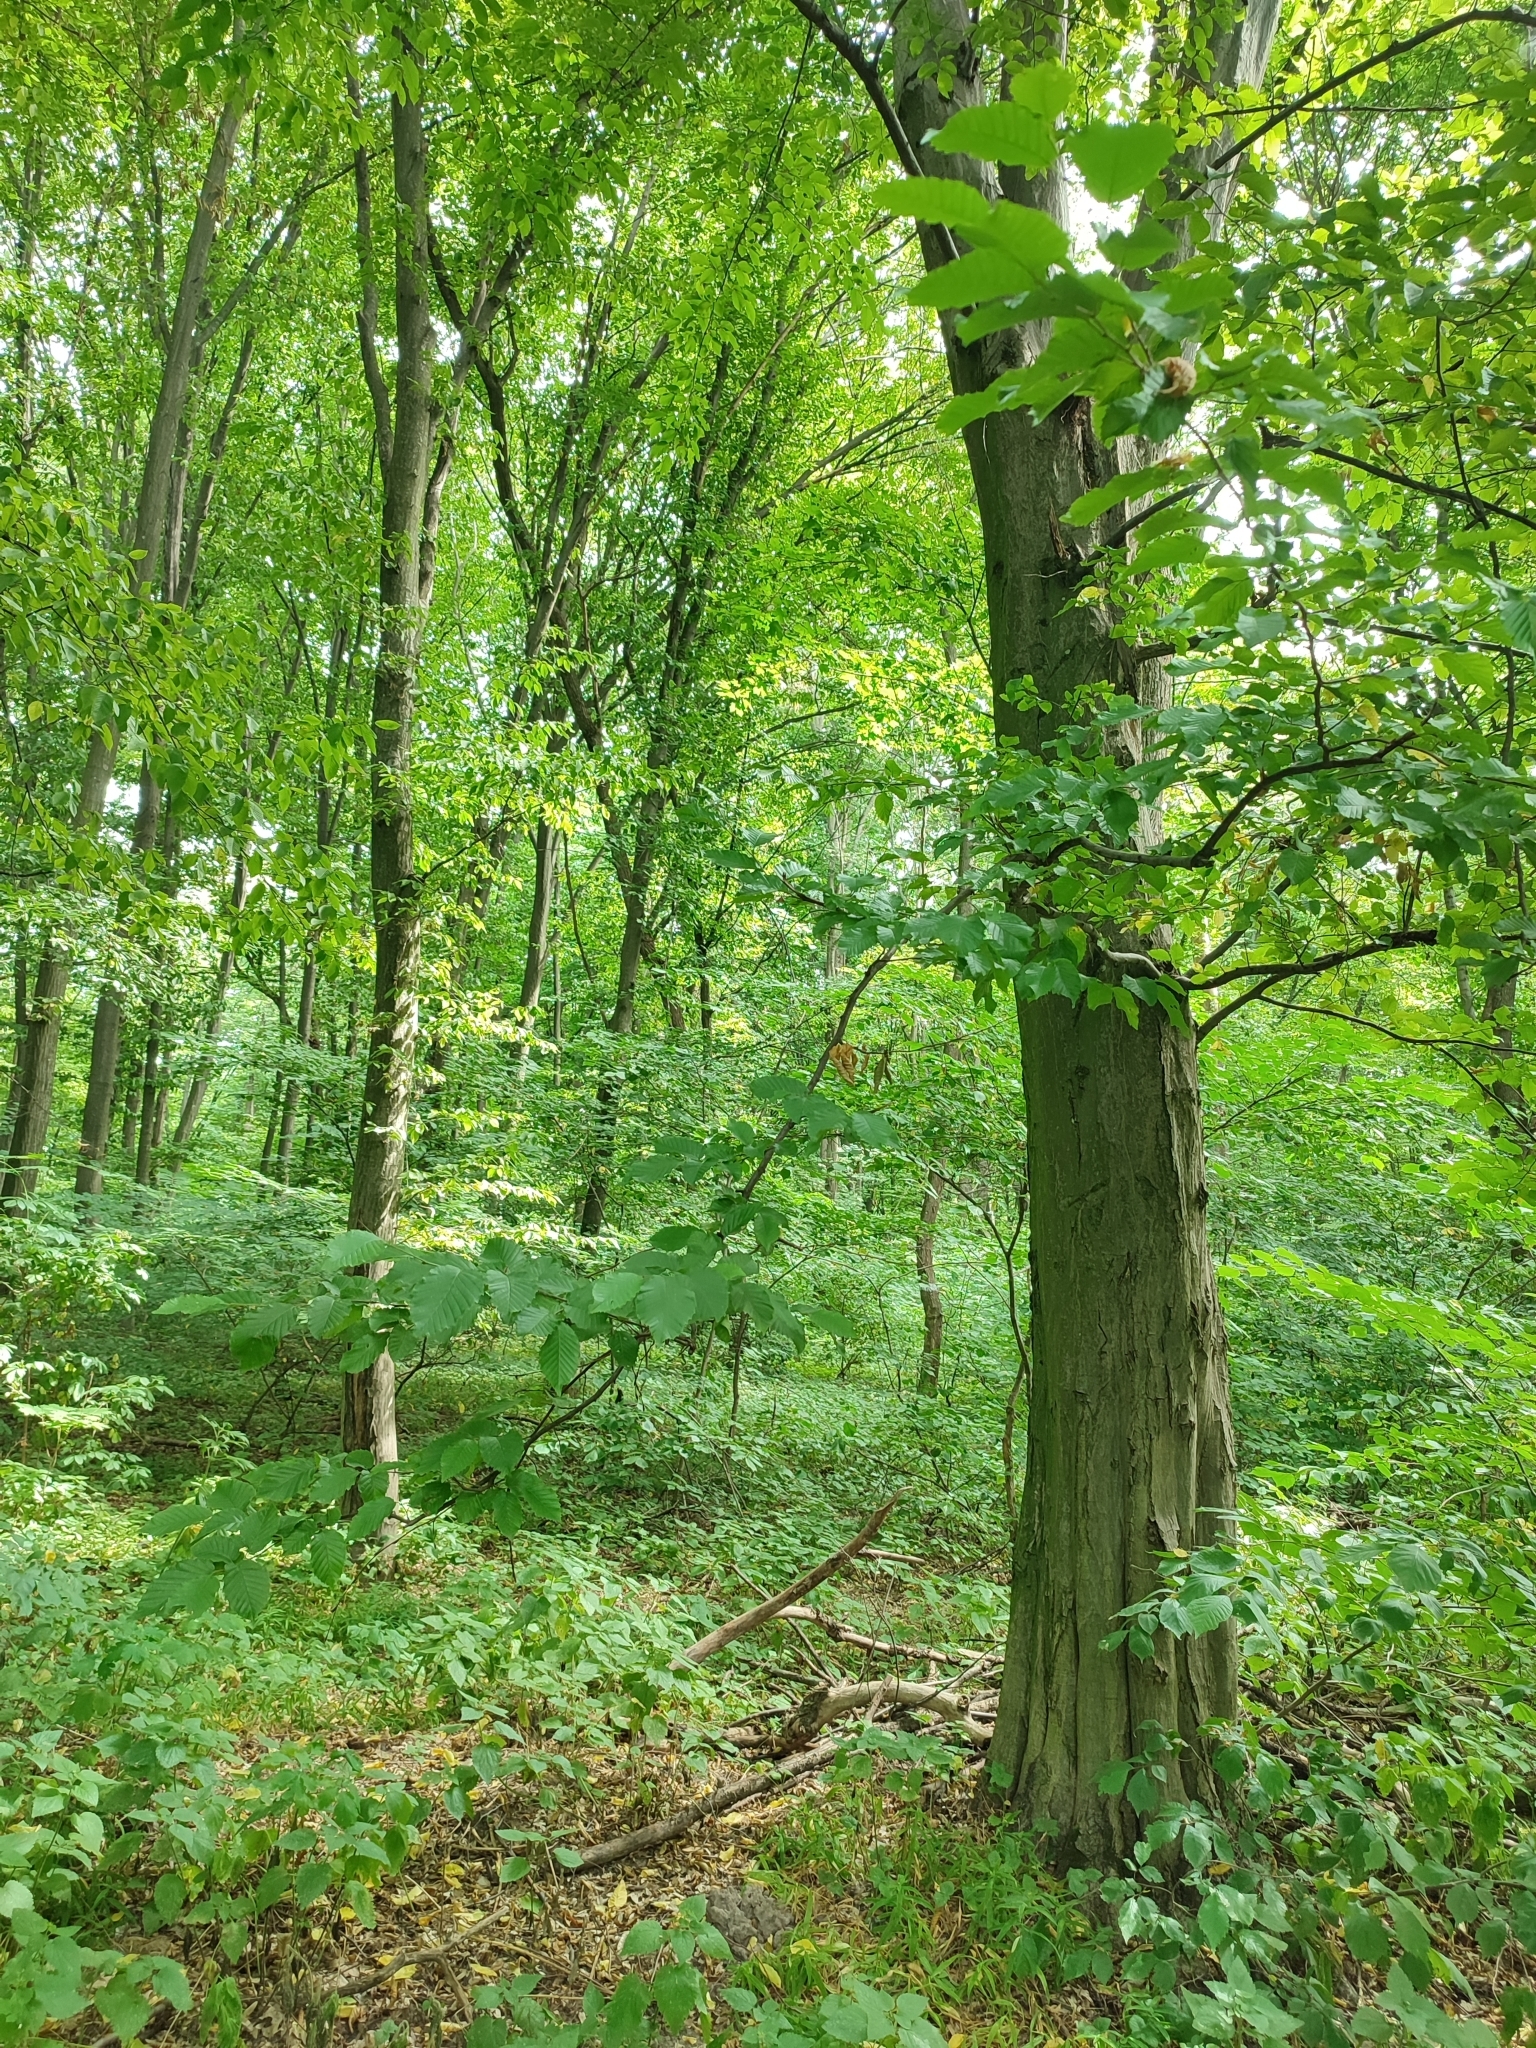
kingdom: Plantae
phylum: Tracheophyta
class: Magnoliopsida
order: Fagales
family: Betulaceae
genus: Carpinus
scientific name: Carpinus betulus
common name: Hornbeam
